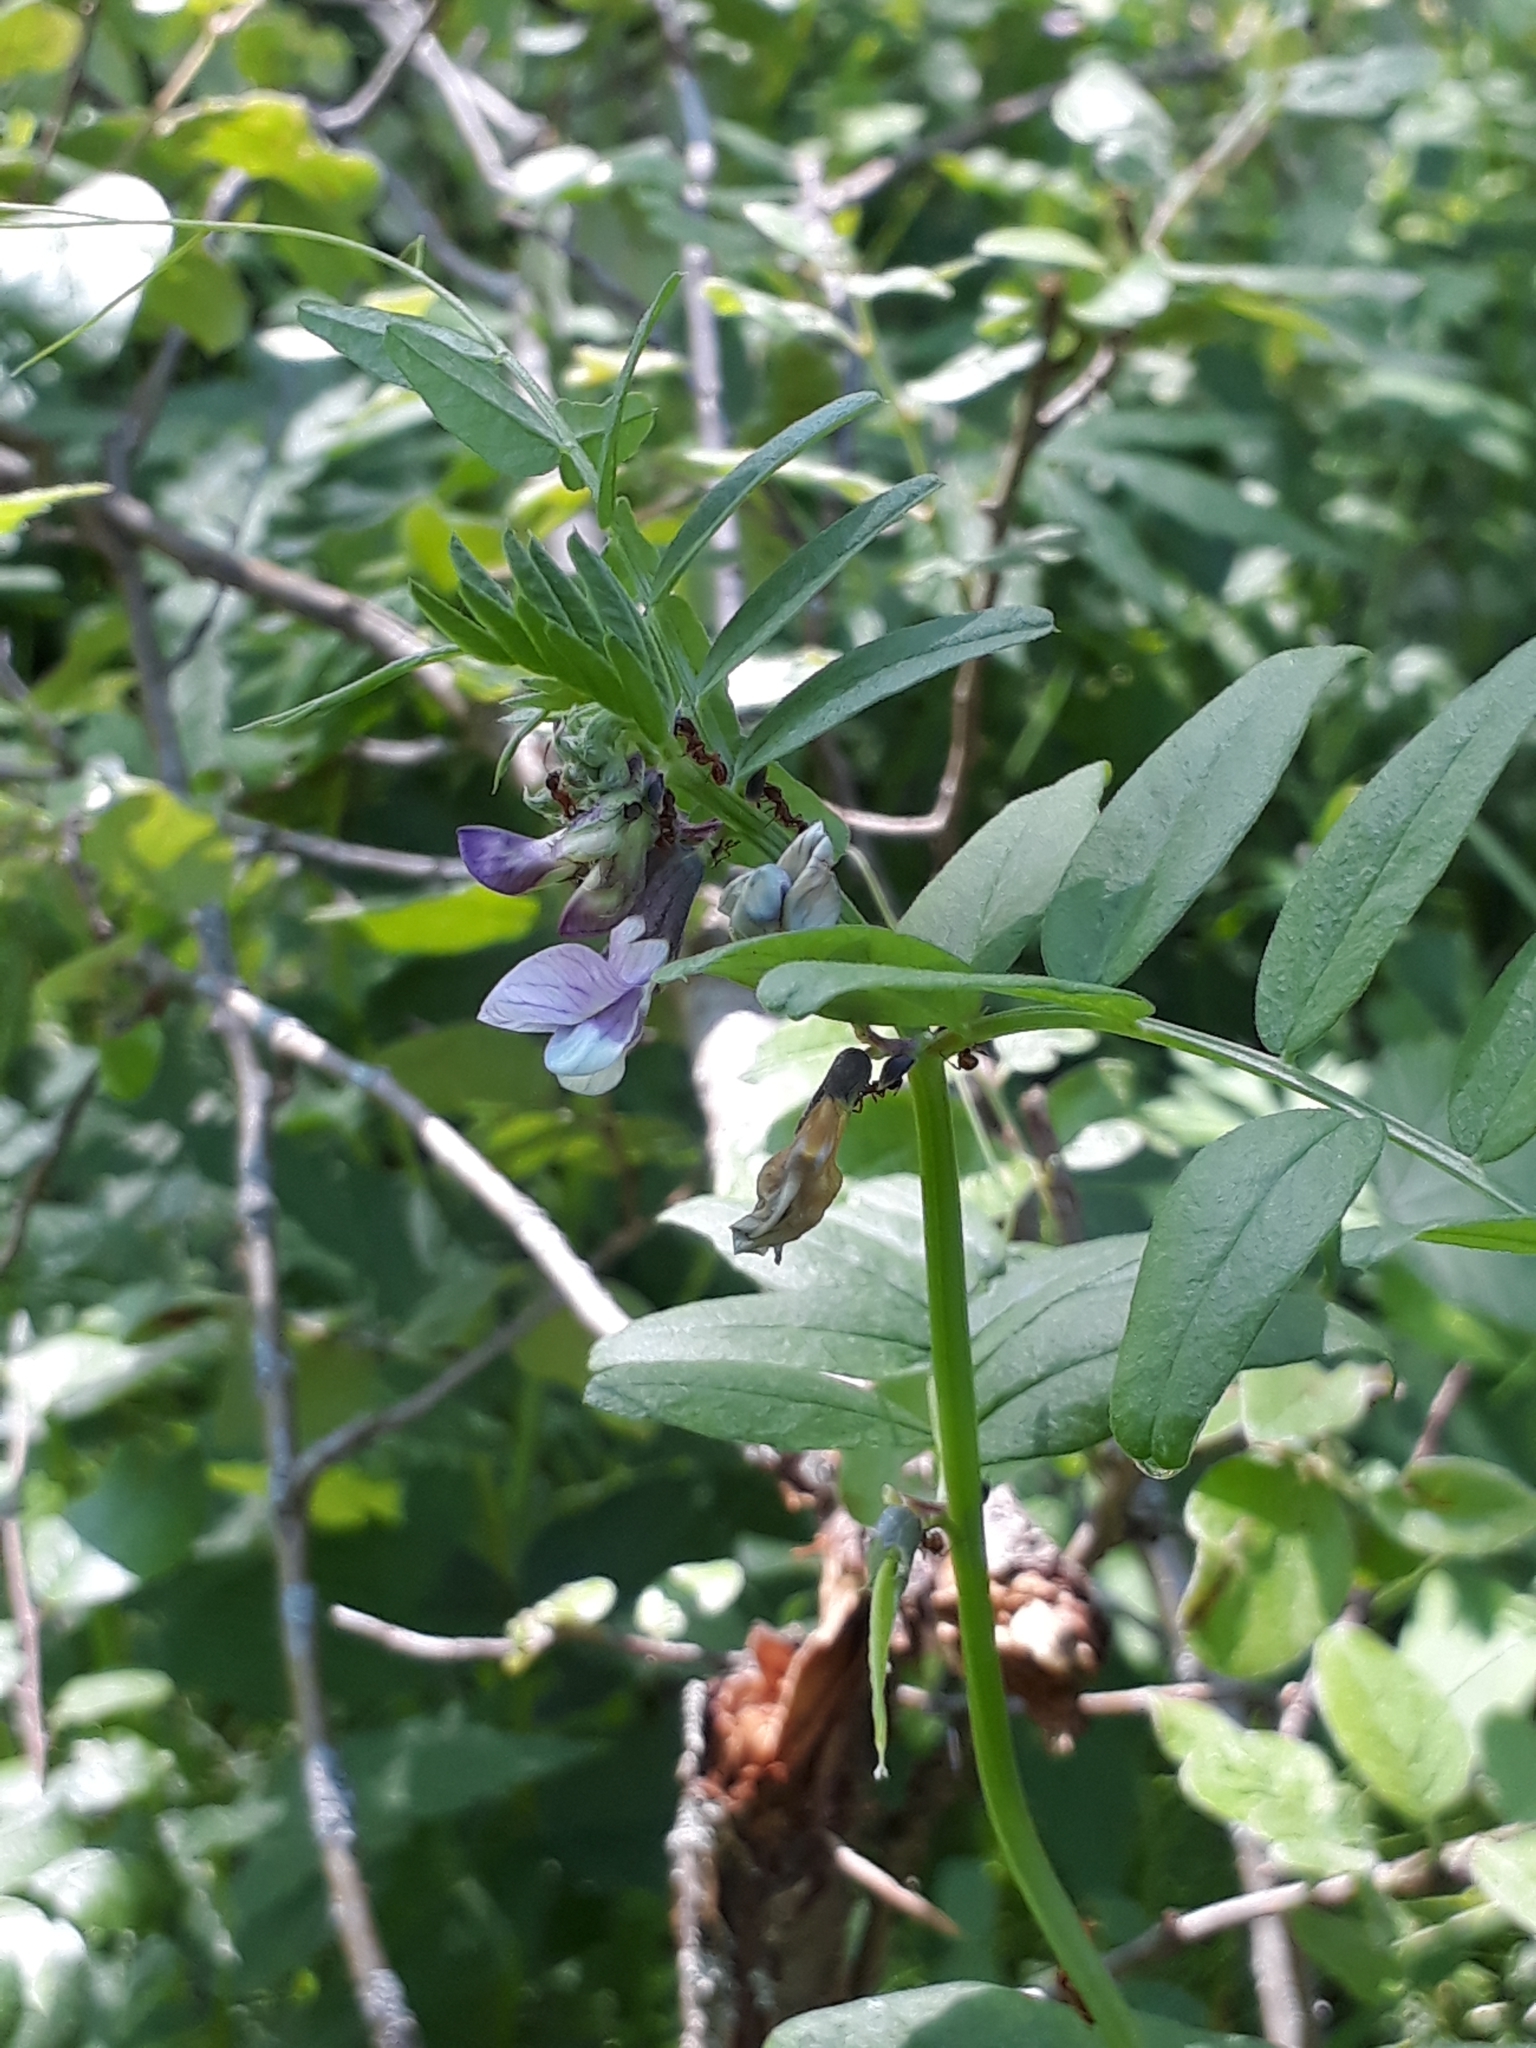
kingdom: Plantae
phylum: Tracheophyta
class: Magnoliopsida
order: Fabales
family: Fabaceae
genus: Vicia
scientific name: Vicia sepium
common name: Bush vetch
